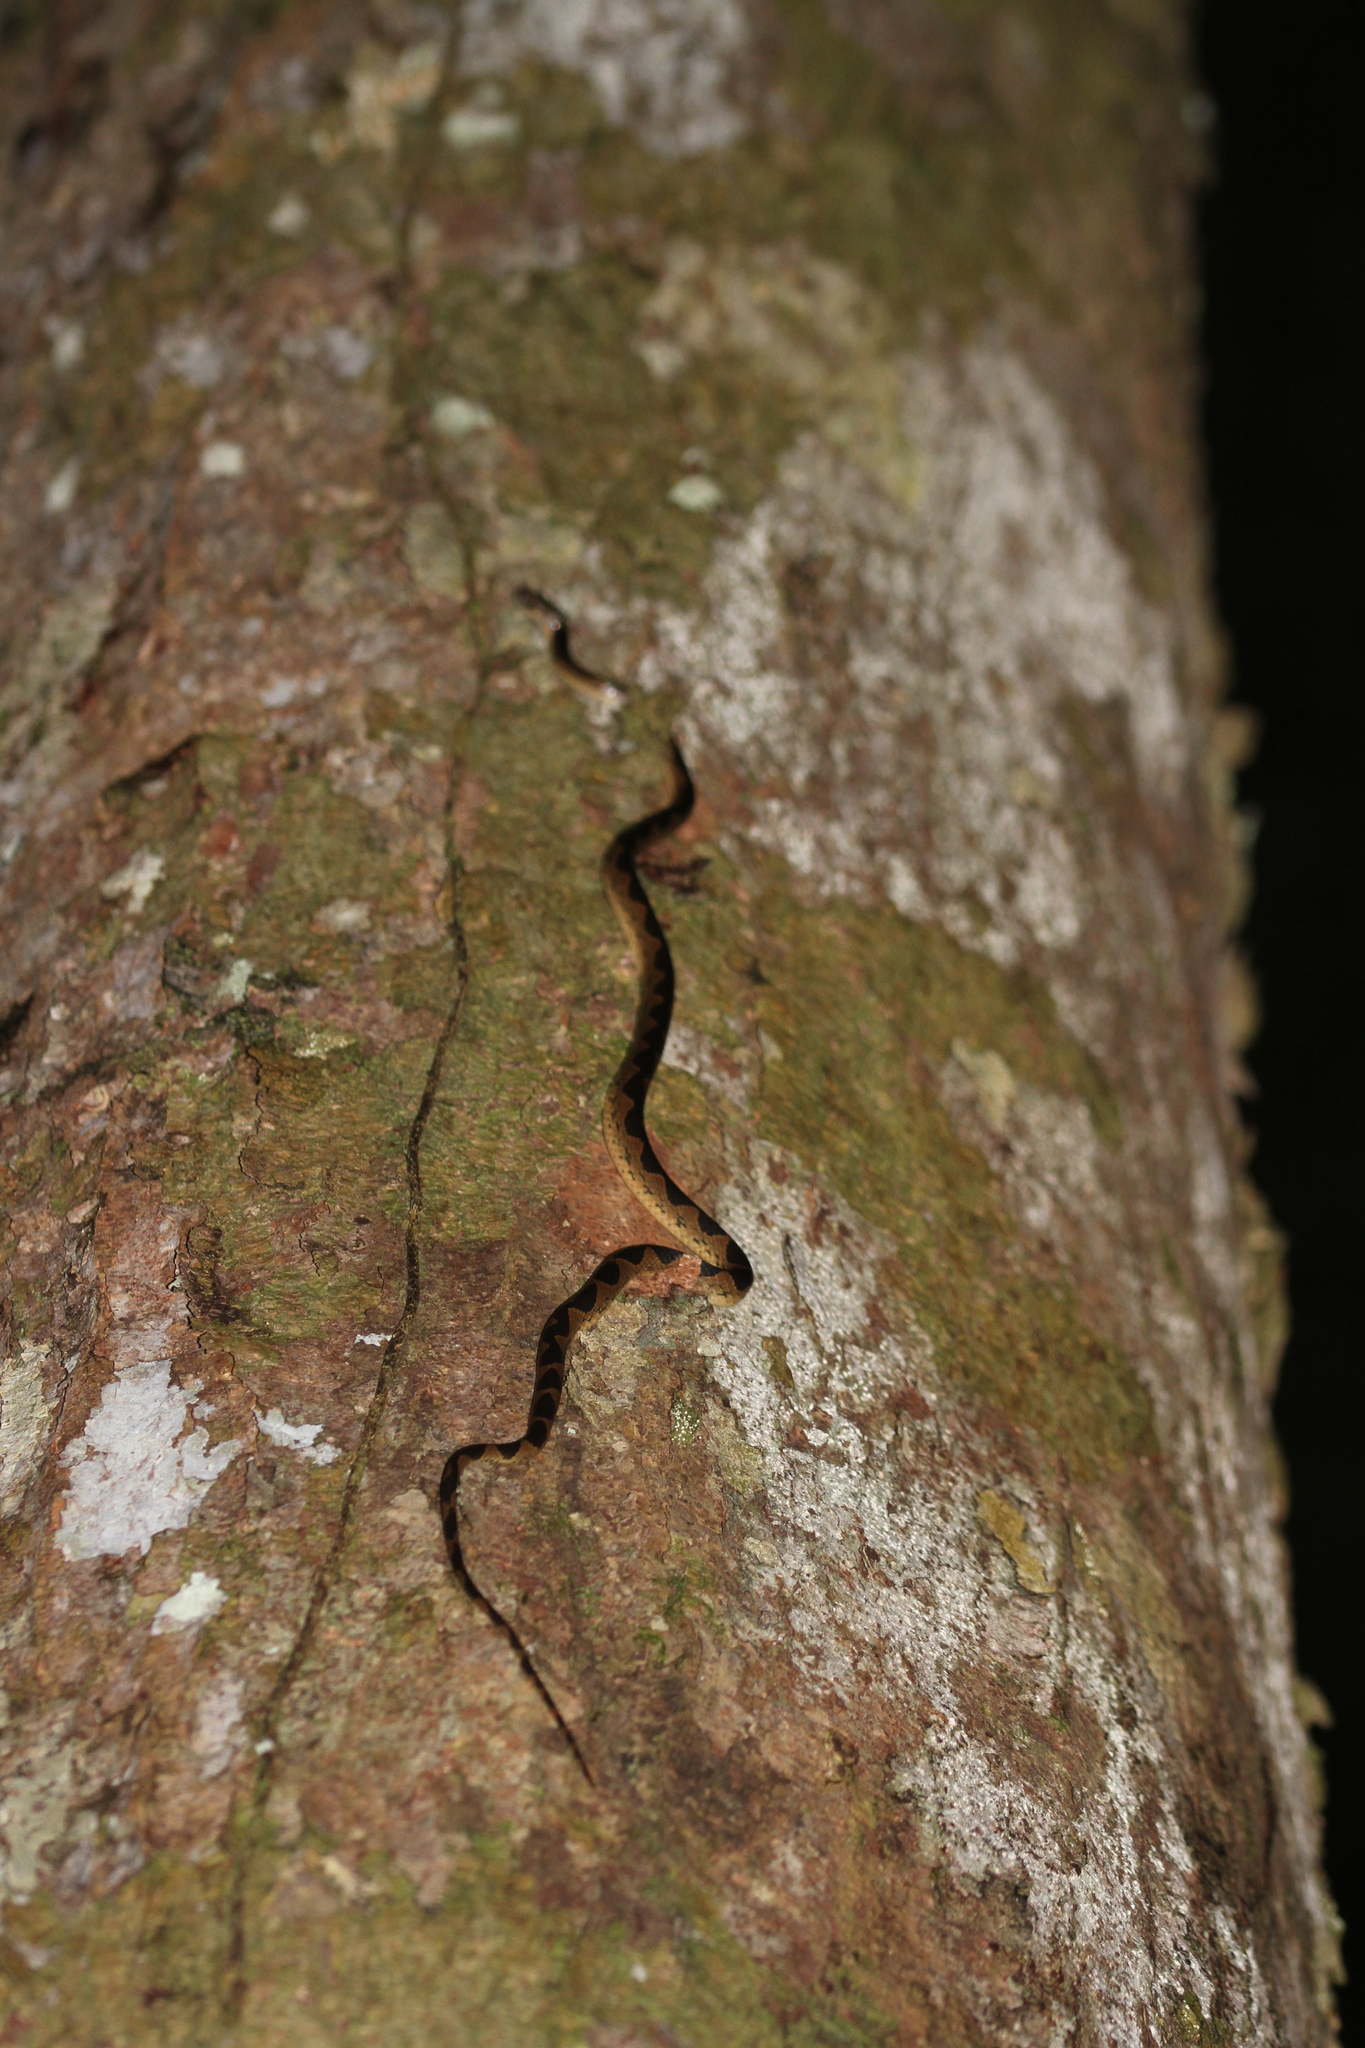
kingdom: Animalia
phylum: Chordata
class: Squamata
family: Colubridae
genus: Leptodeira
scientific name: Leptodeira annulata
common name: Banded cat-eyed snake
